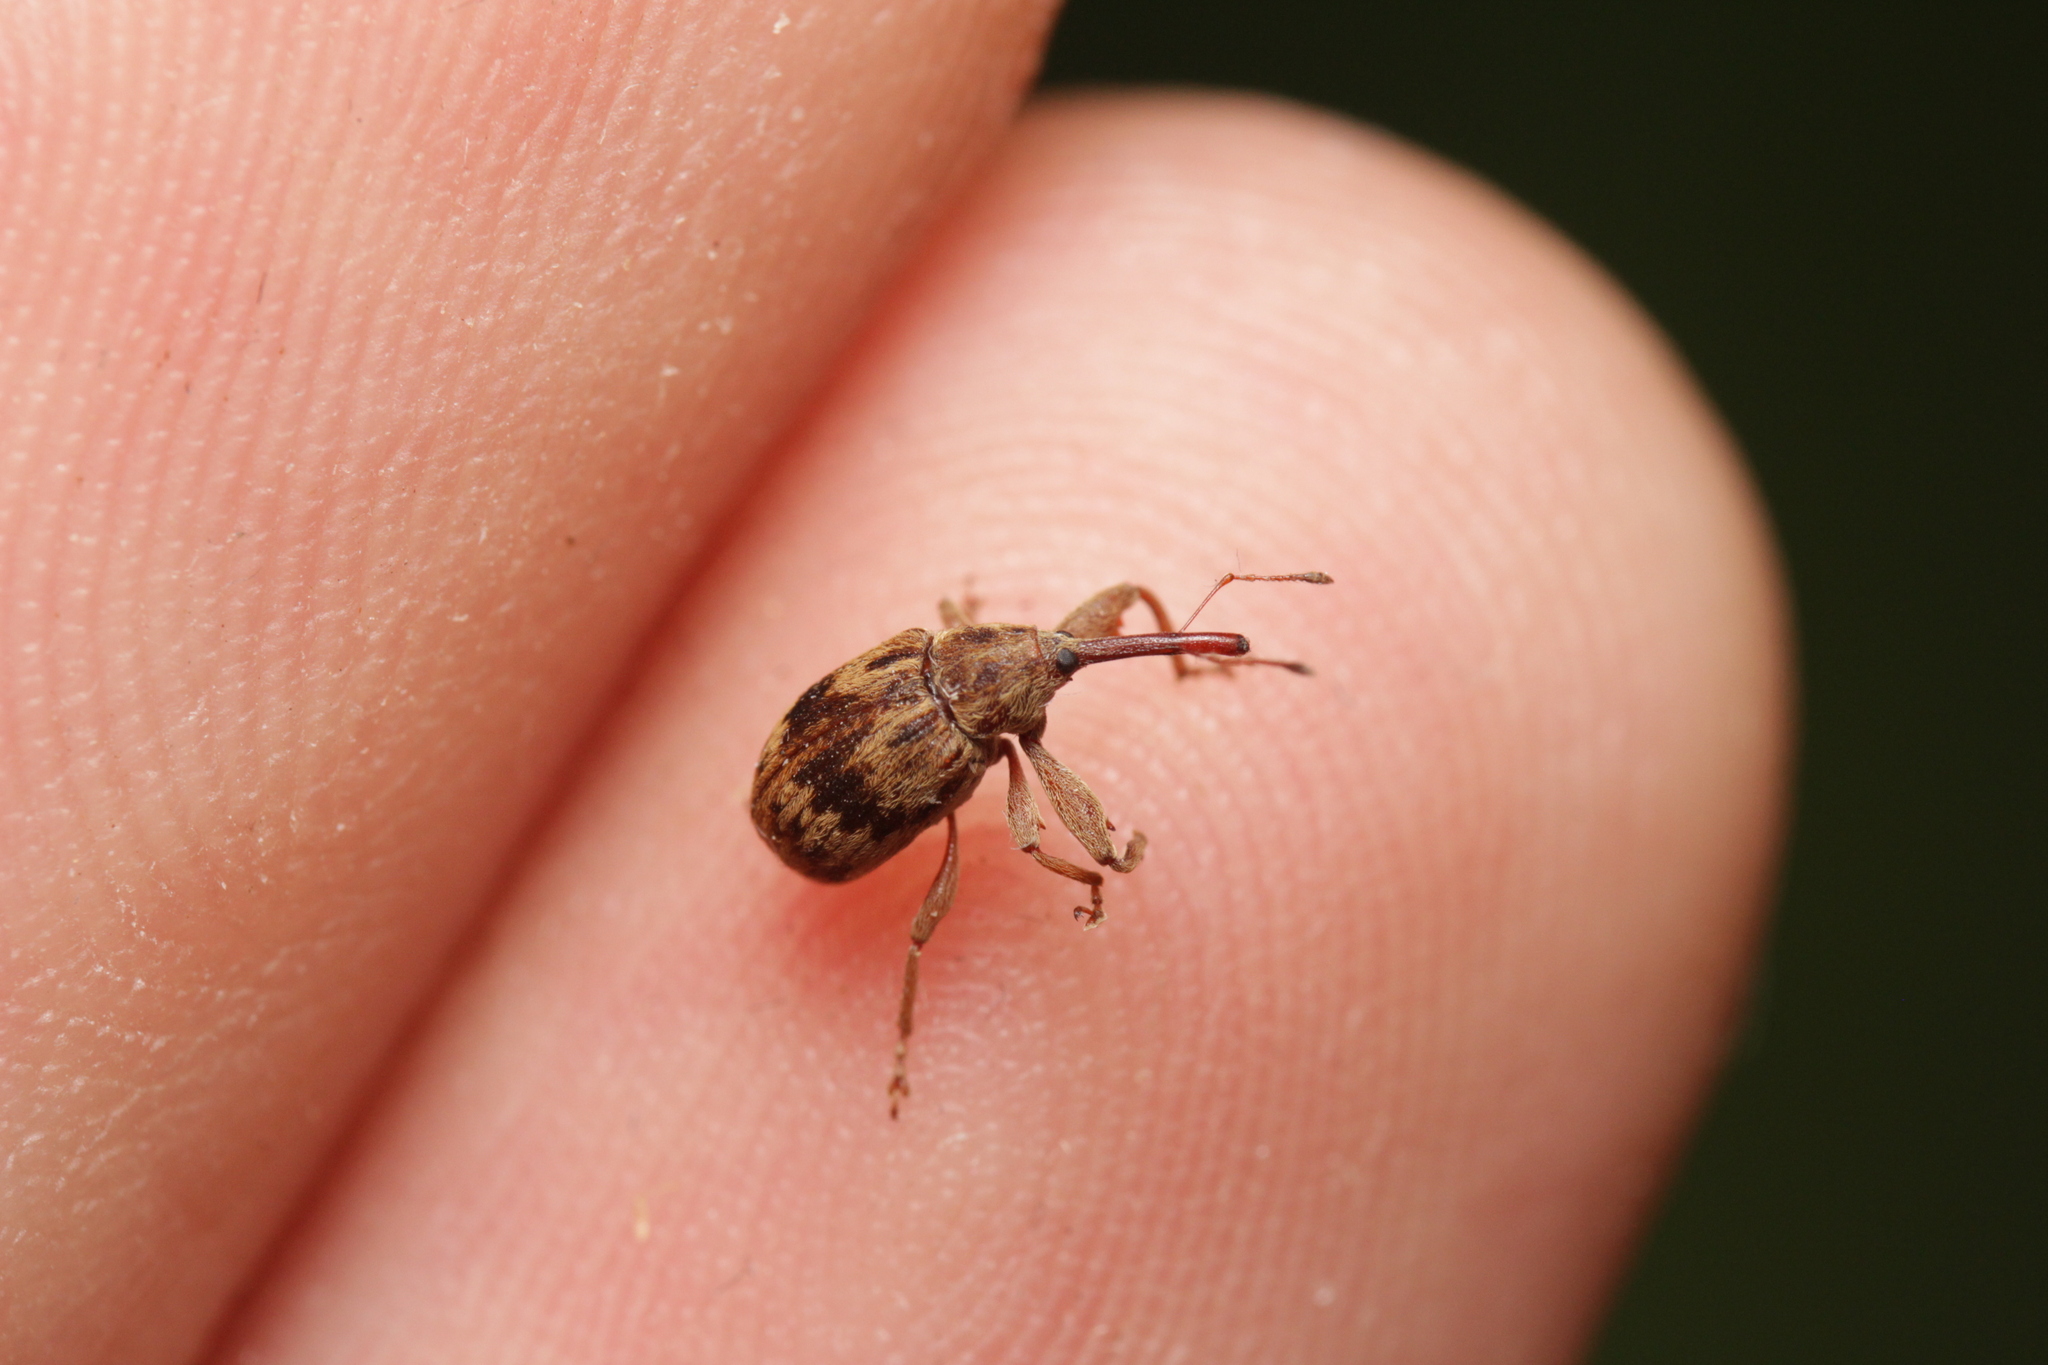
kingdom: Animalia
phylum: Arthropoda
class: Insecta
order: Coleoptera
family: Curculionidae
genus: Anthonomus
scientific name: Anthonomus rectirostris
